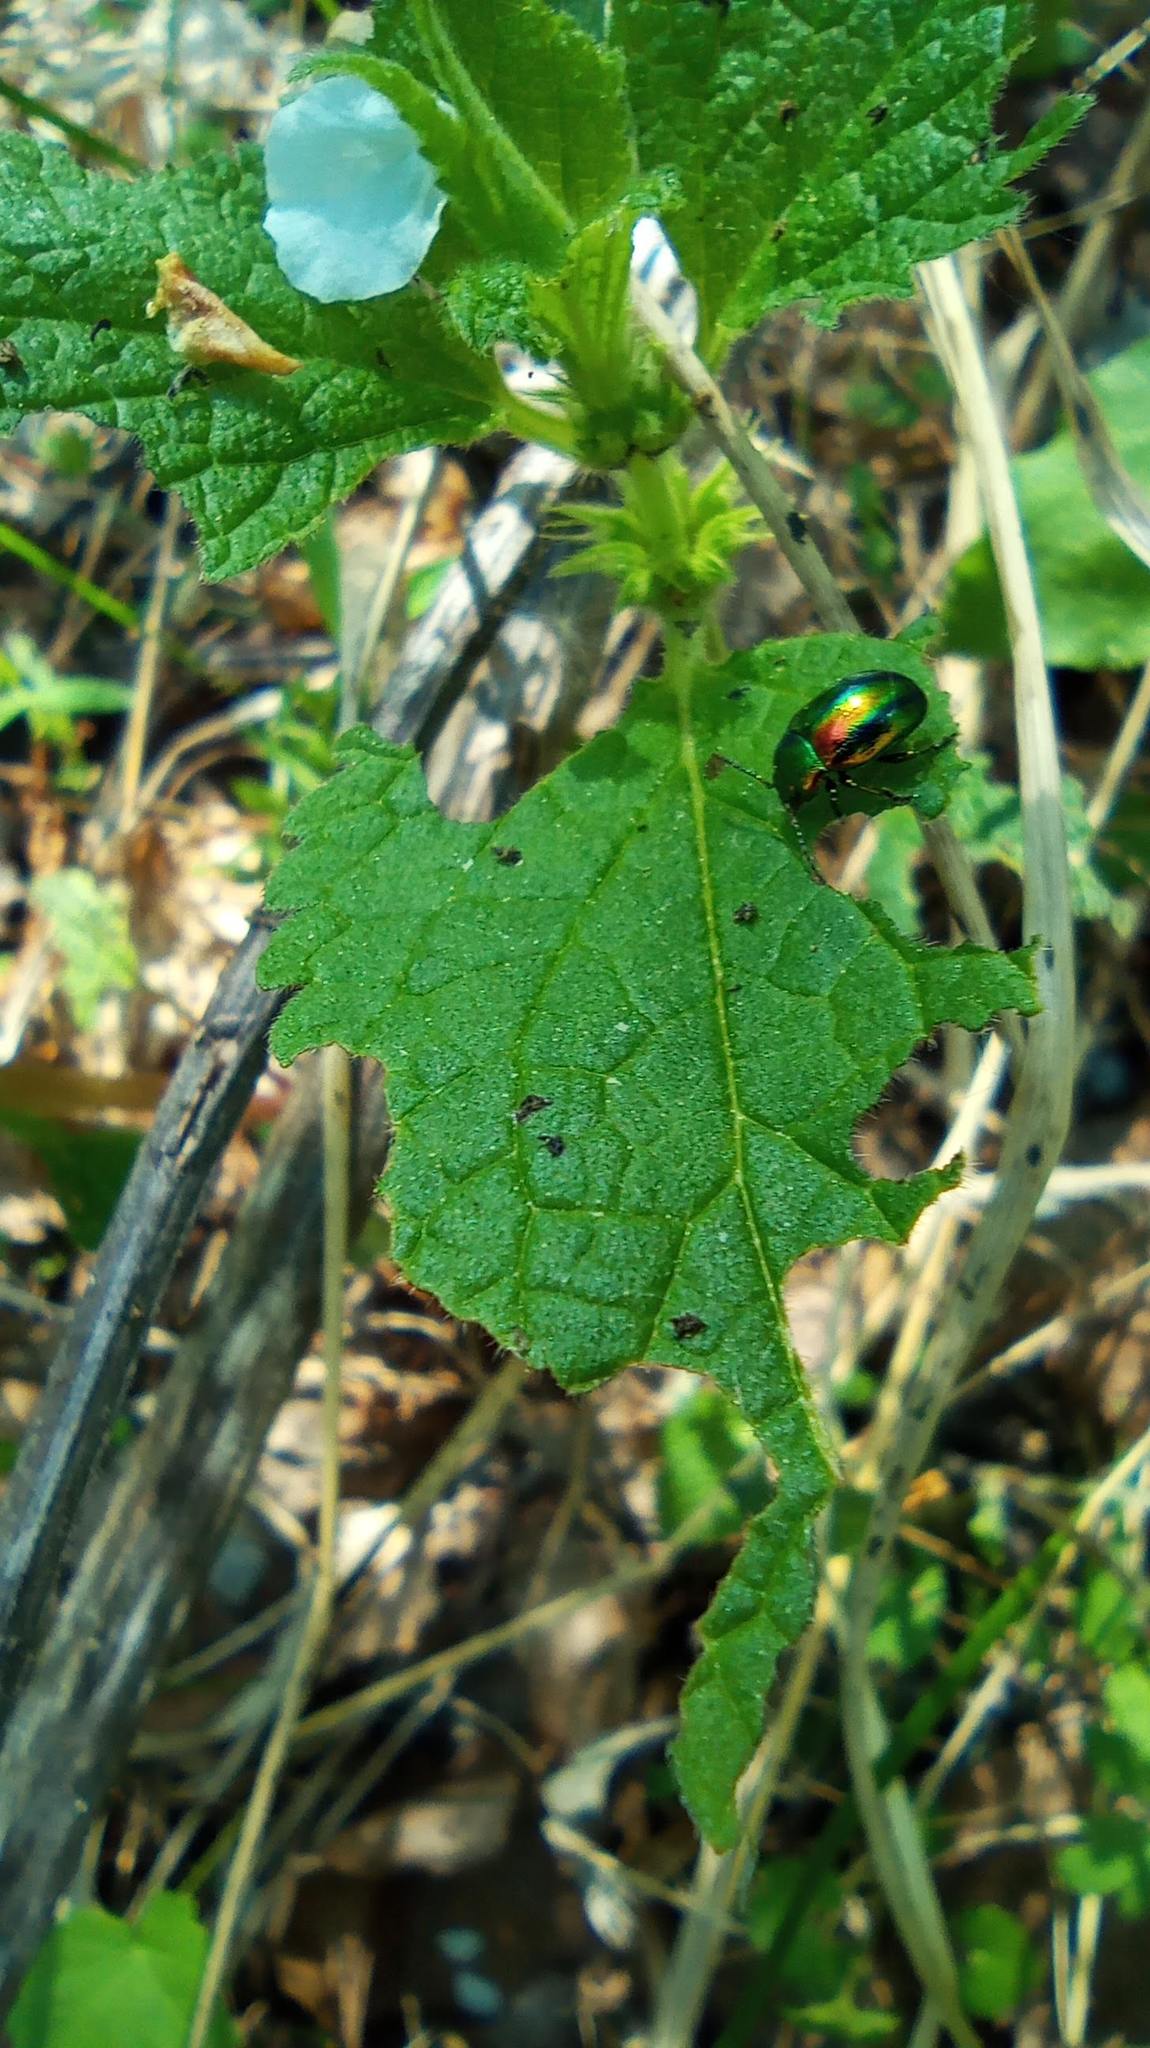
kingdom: Animalia
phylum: Arthropoda
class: Insecta
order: Coleoptera
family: Chrysomelidae
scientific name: Chrysomelidae
